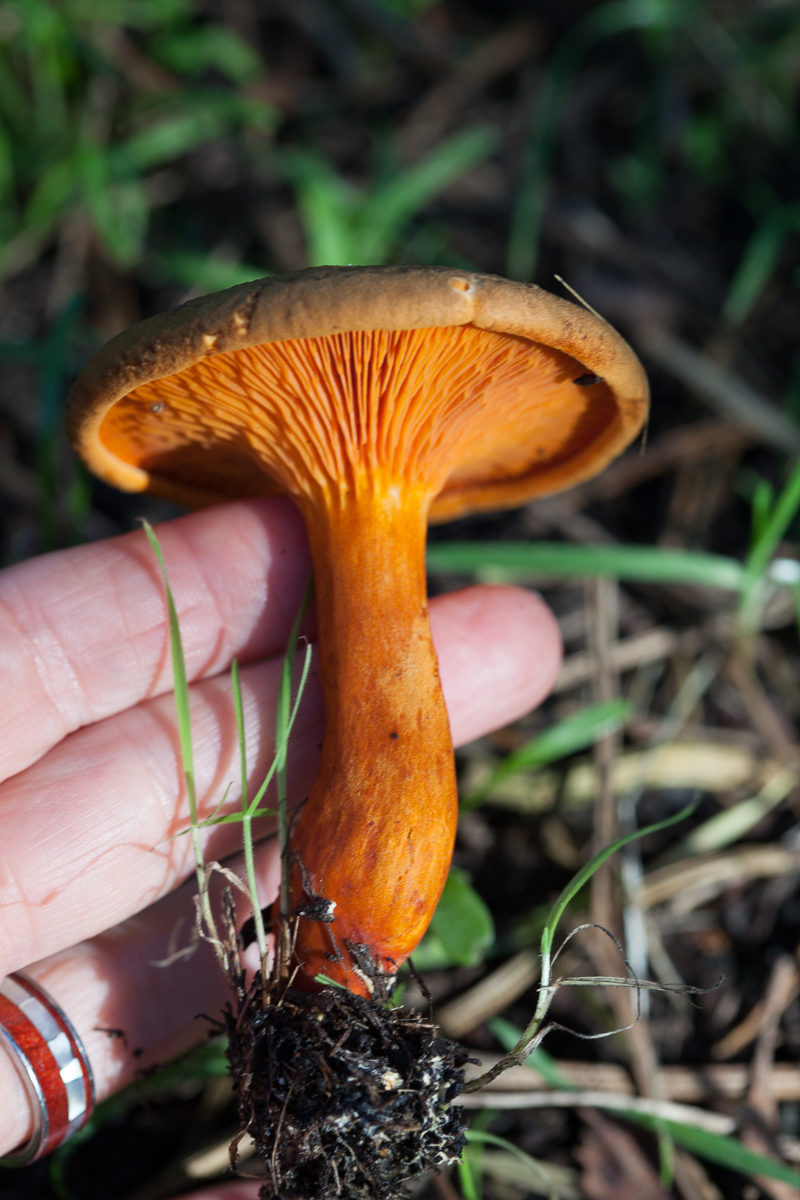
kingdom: Fungi
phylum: Basidiomycota
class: Agaricomycetes
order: Boletales
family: Hygrophoropsidaceae
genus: Hygrophoropsis
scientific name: Hygrophoropsis aurantiaca
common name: False chanterelle
